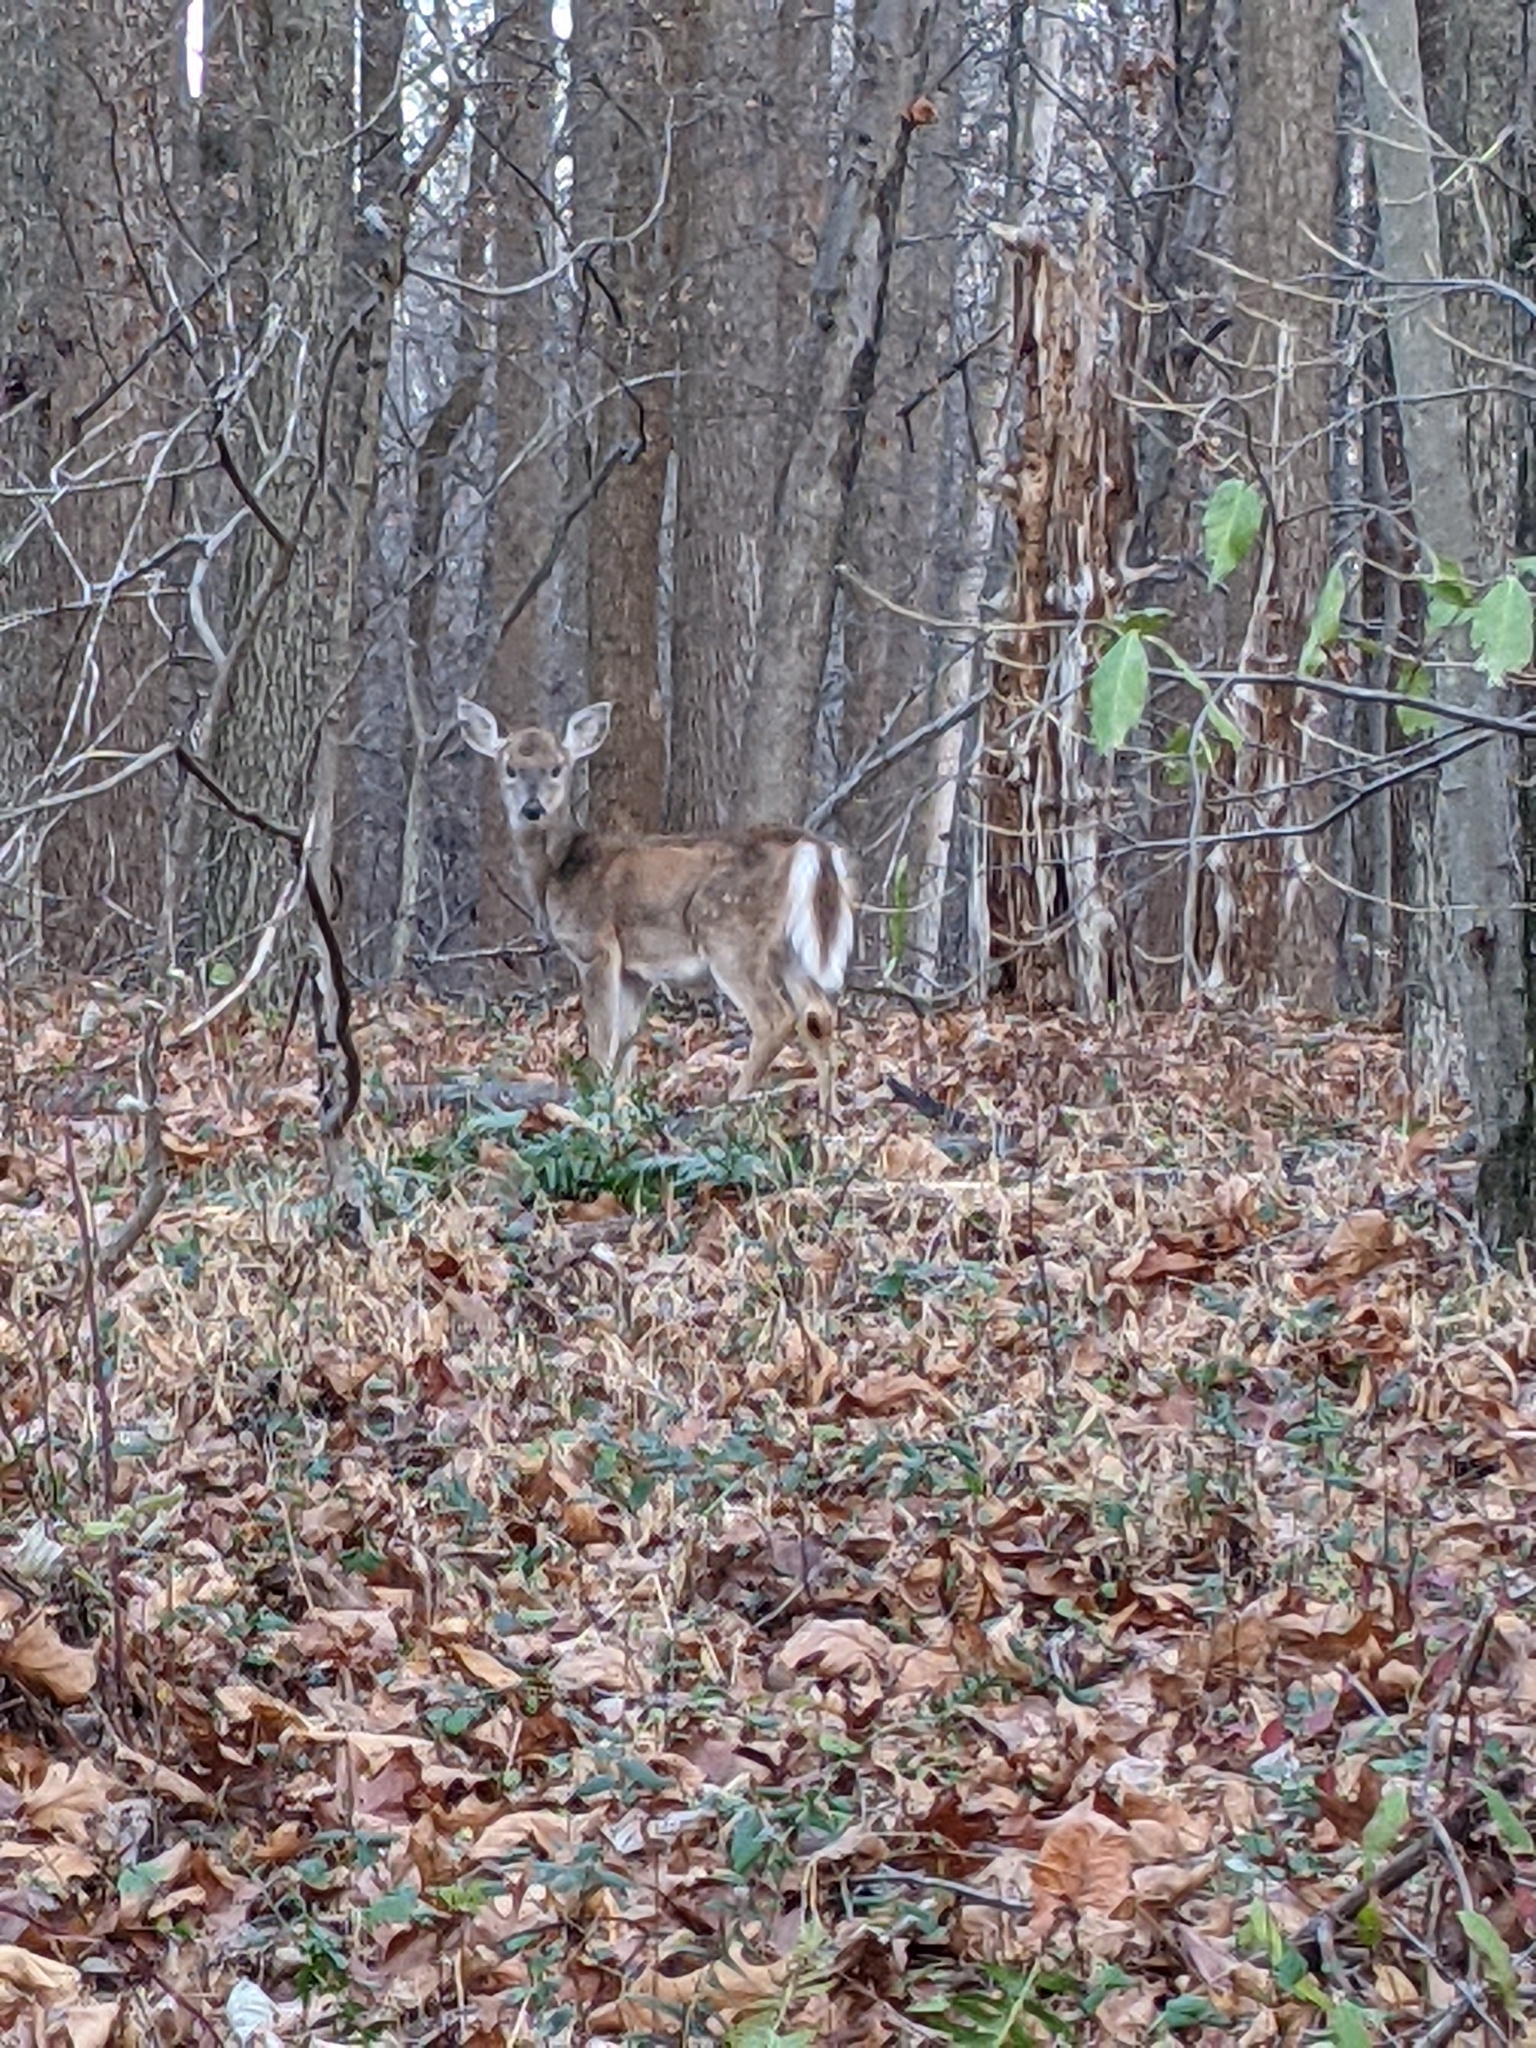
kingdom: Animalia
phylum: Chordata
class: Mammalia
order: Artiodactyla
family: Cervidae
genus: Odocoileus
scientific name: Odocoileus virginianus
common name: White-tailed deer
